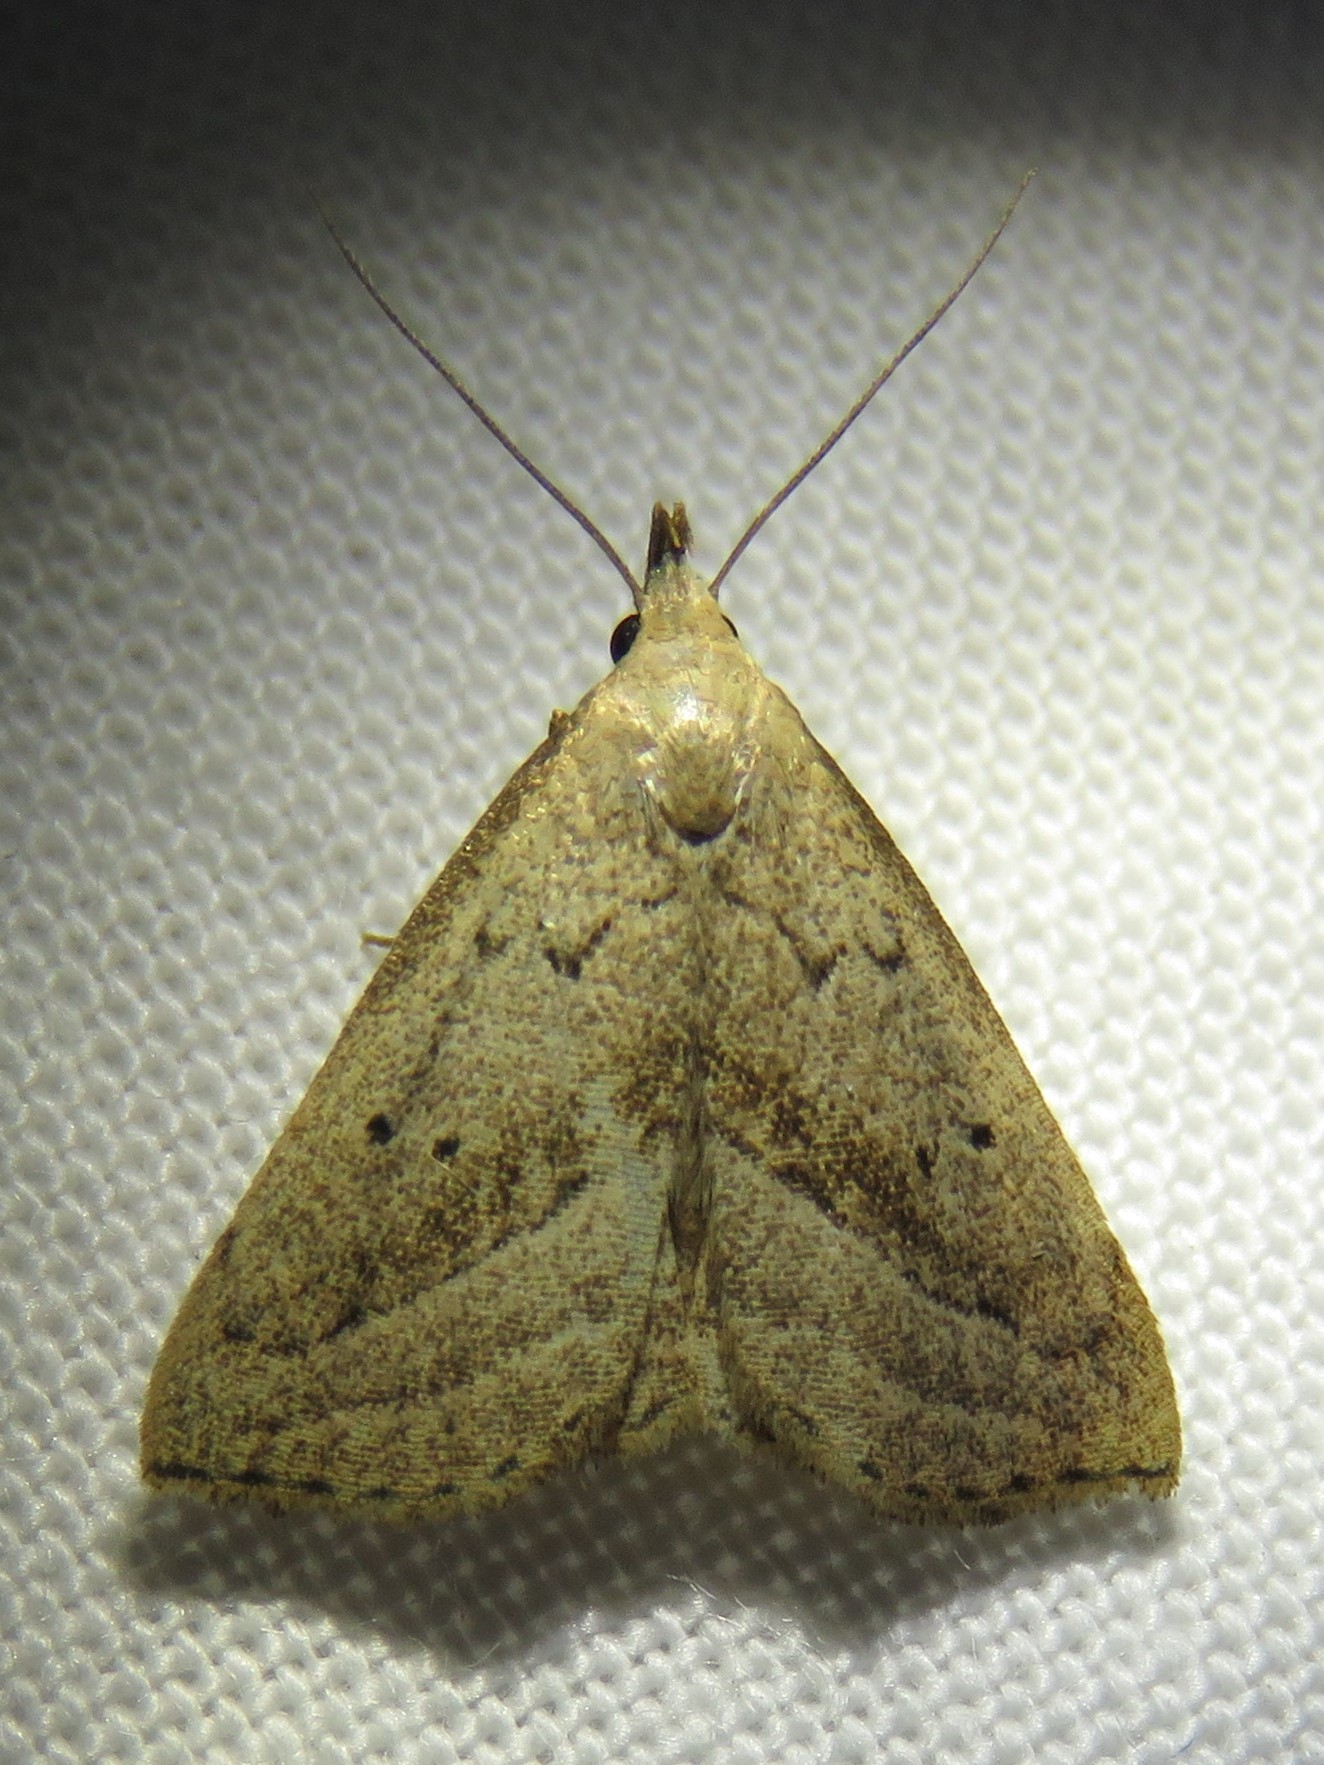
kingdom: Animalia
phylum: Arthropoda
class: Insecta
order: Lepidoptera
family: Erebidae
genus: Macrochilo
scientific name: Macrochilo hypocritalis
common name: Twin-dotted owlet
